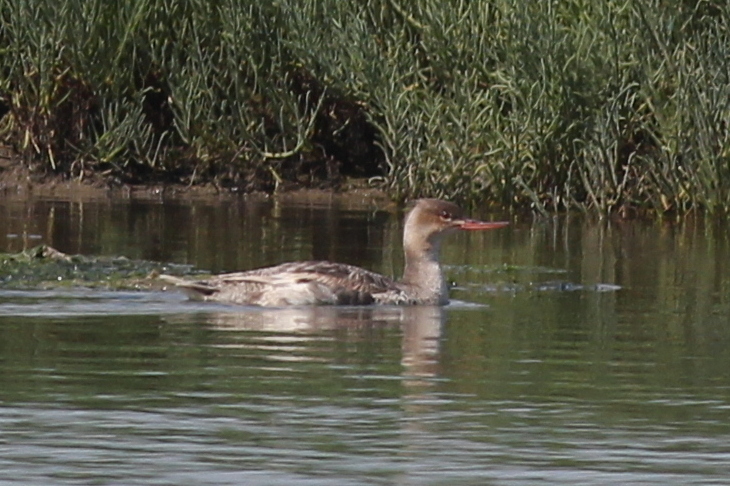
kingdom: Animalia
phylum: Chordata
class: Aves
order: Anseriformes
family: Anatidae
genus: Mergus
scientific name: Mergus serrator
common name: Red-breasted merganser
